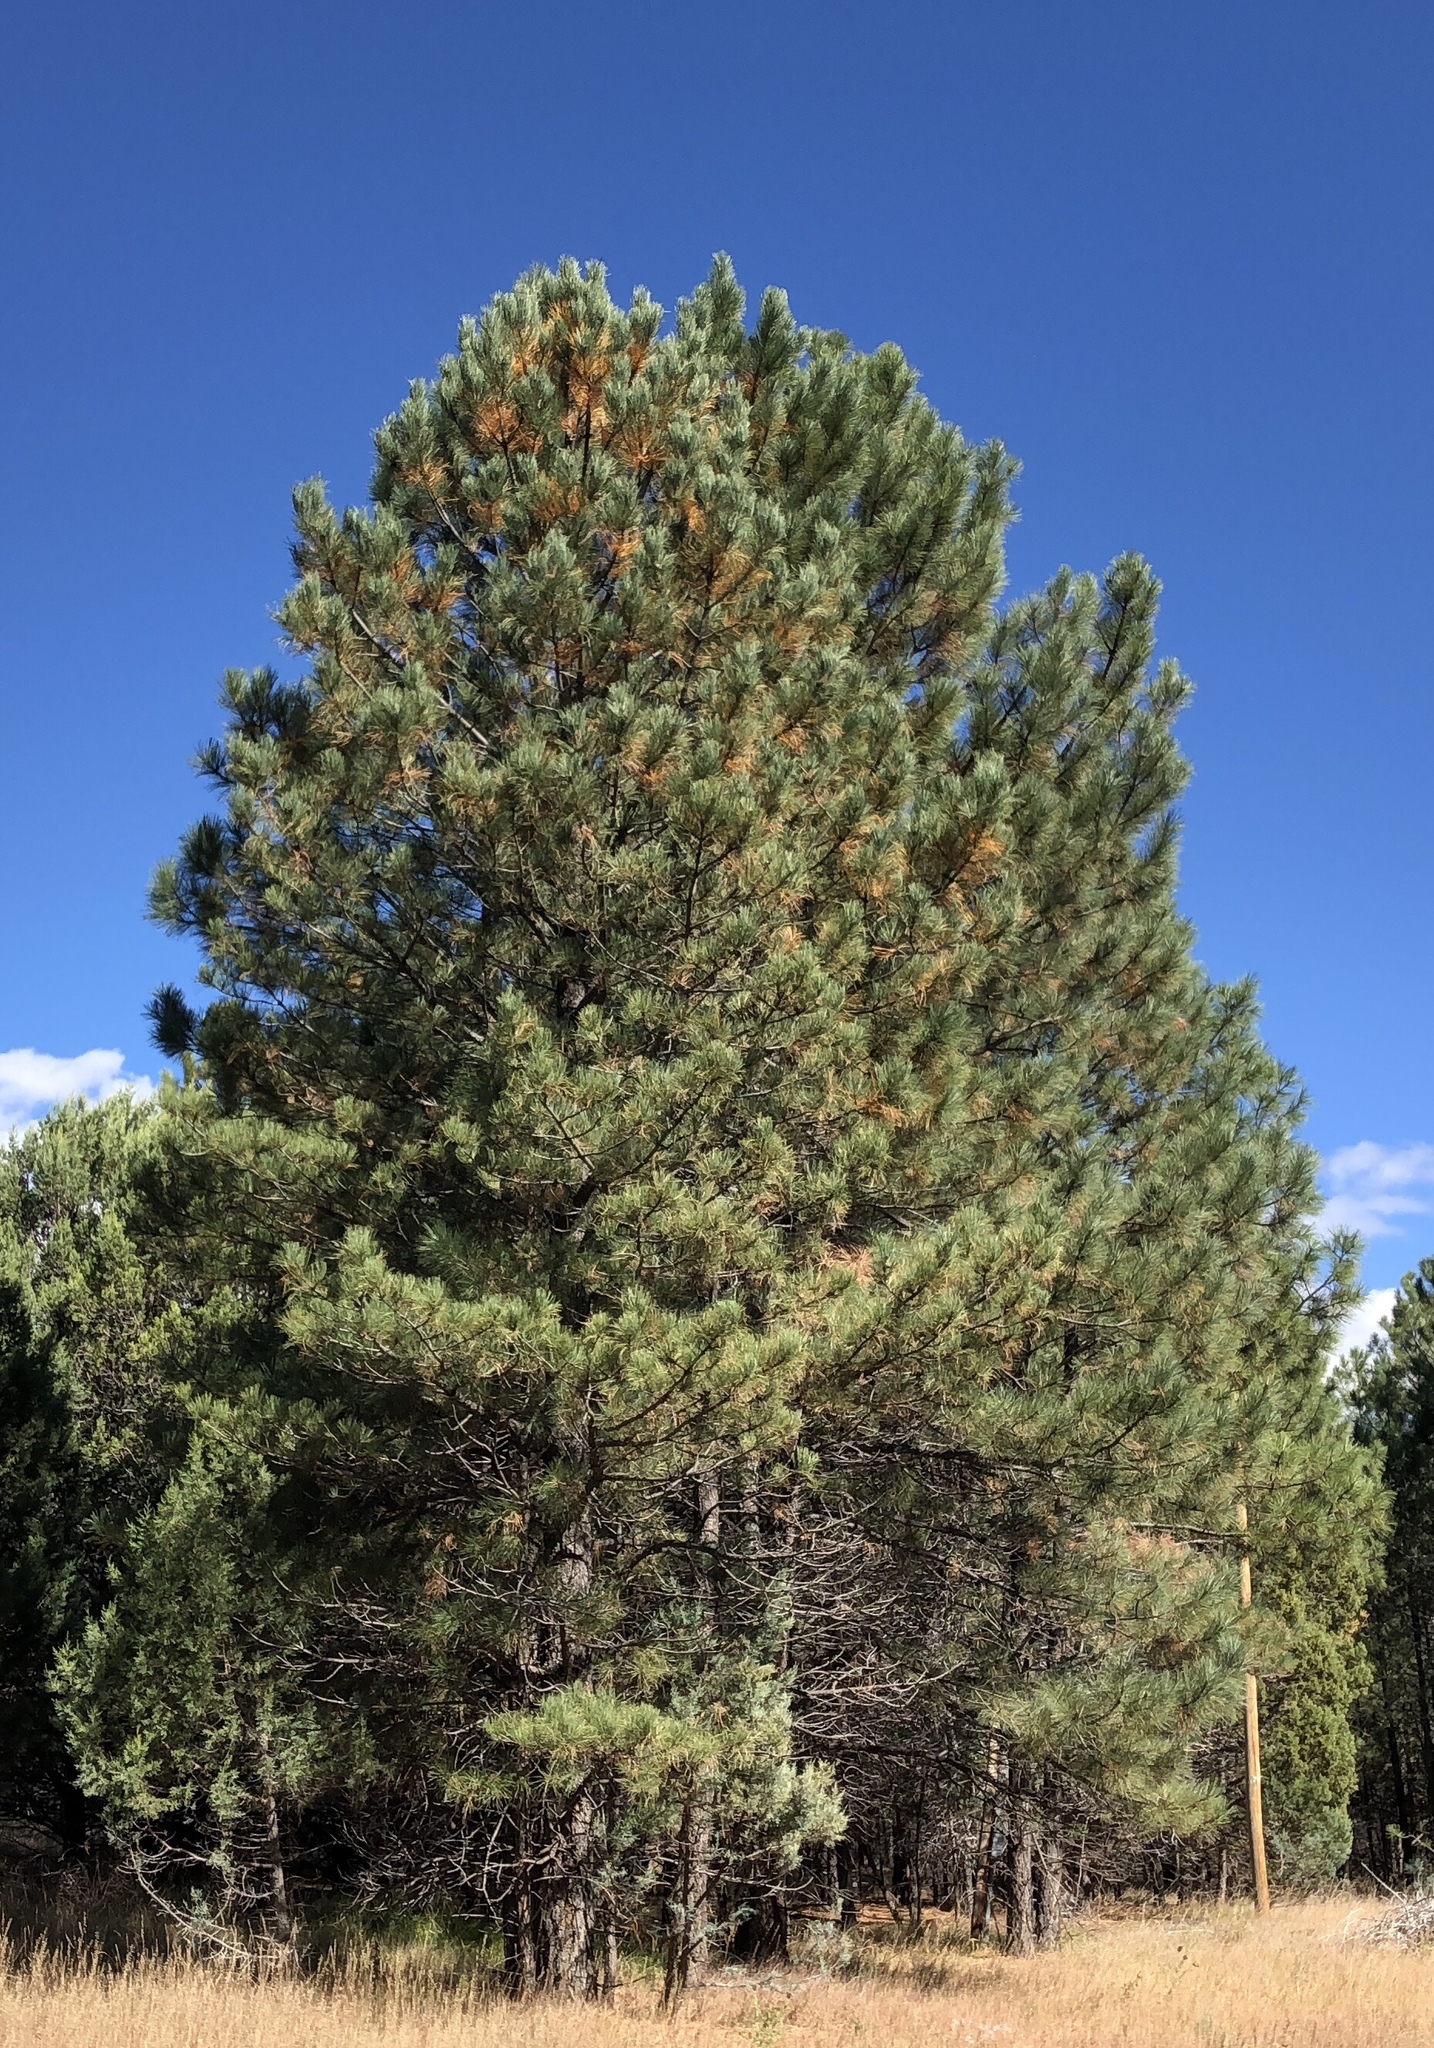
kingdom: Plantae
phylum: Tracheophyta
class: Pinopsida
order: Pinales
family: Pinaceae
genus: Pinus
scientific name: Pinus ponderosa
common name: Western yellow-pine
